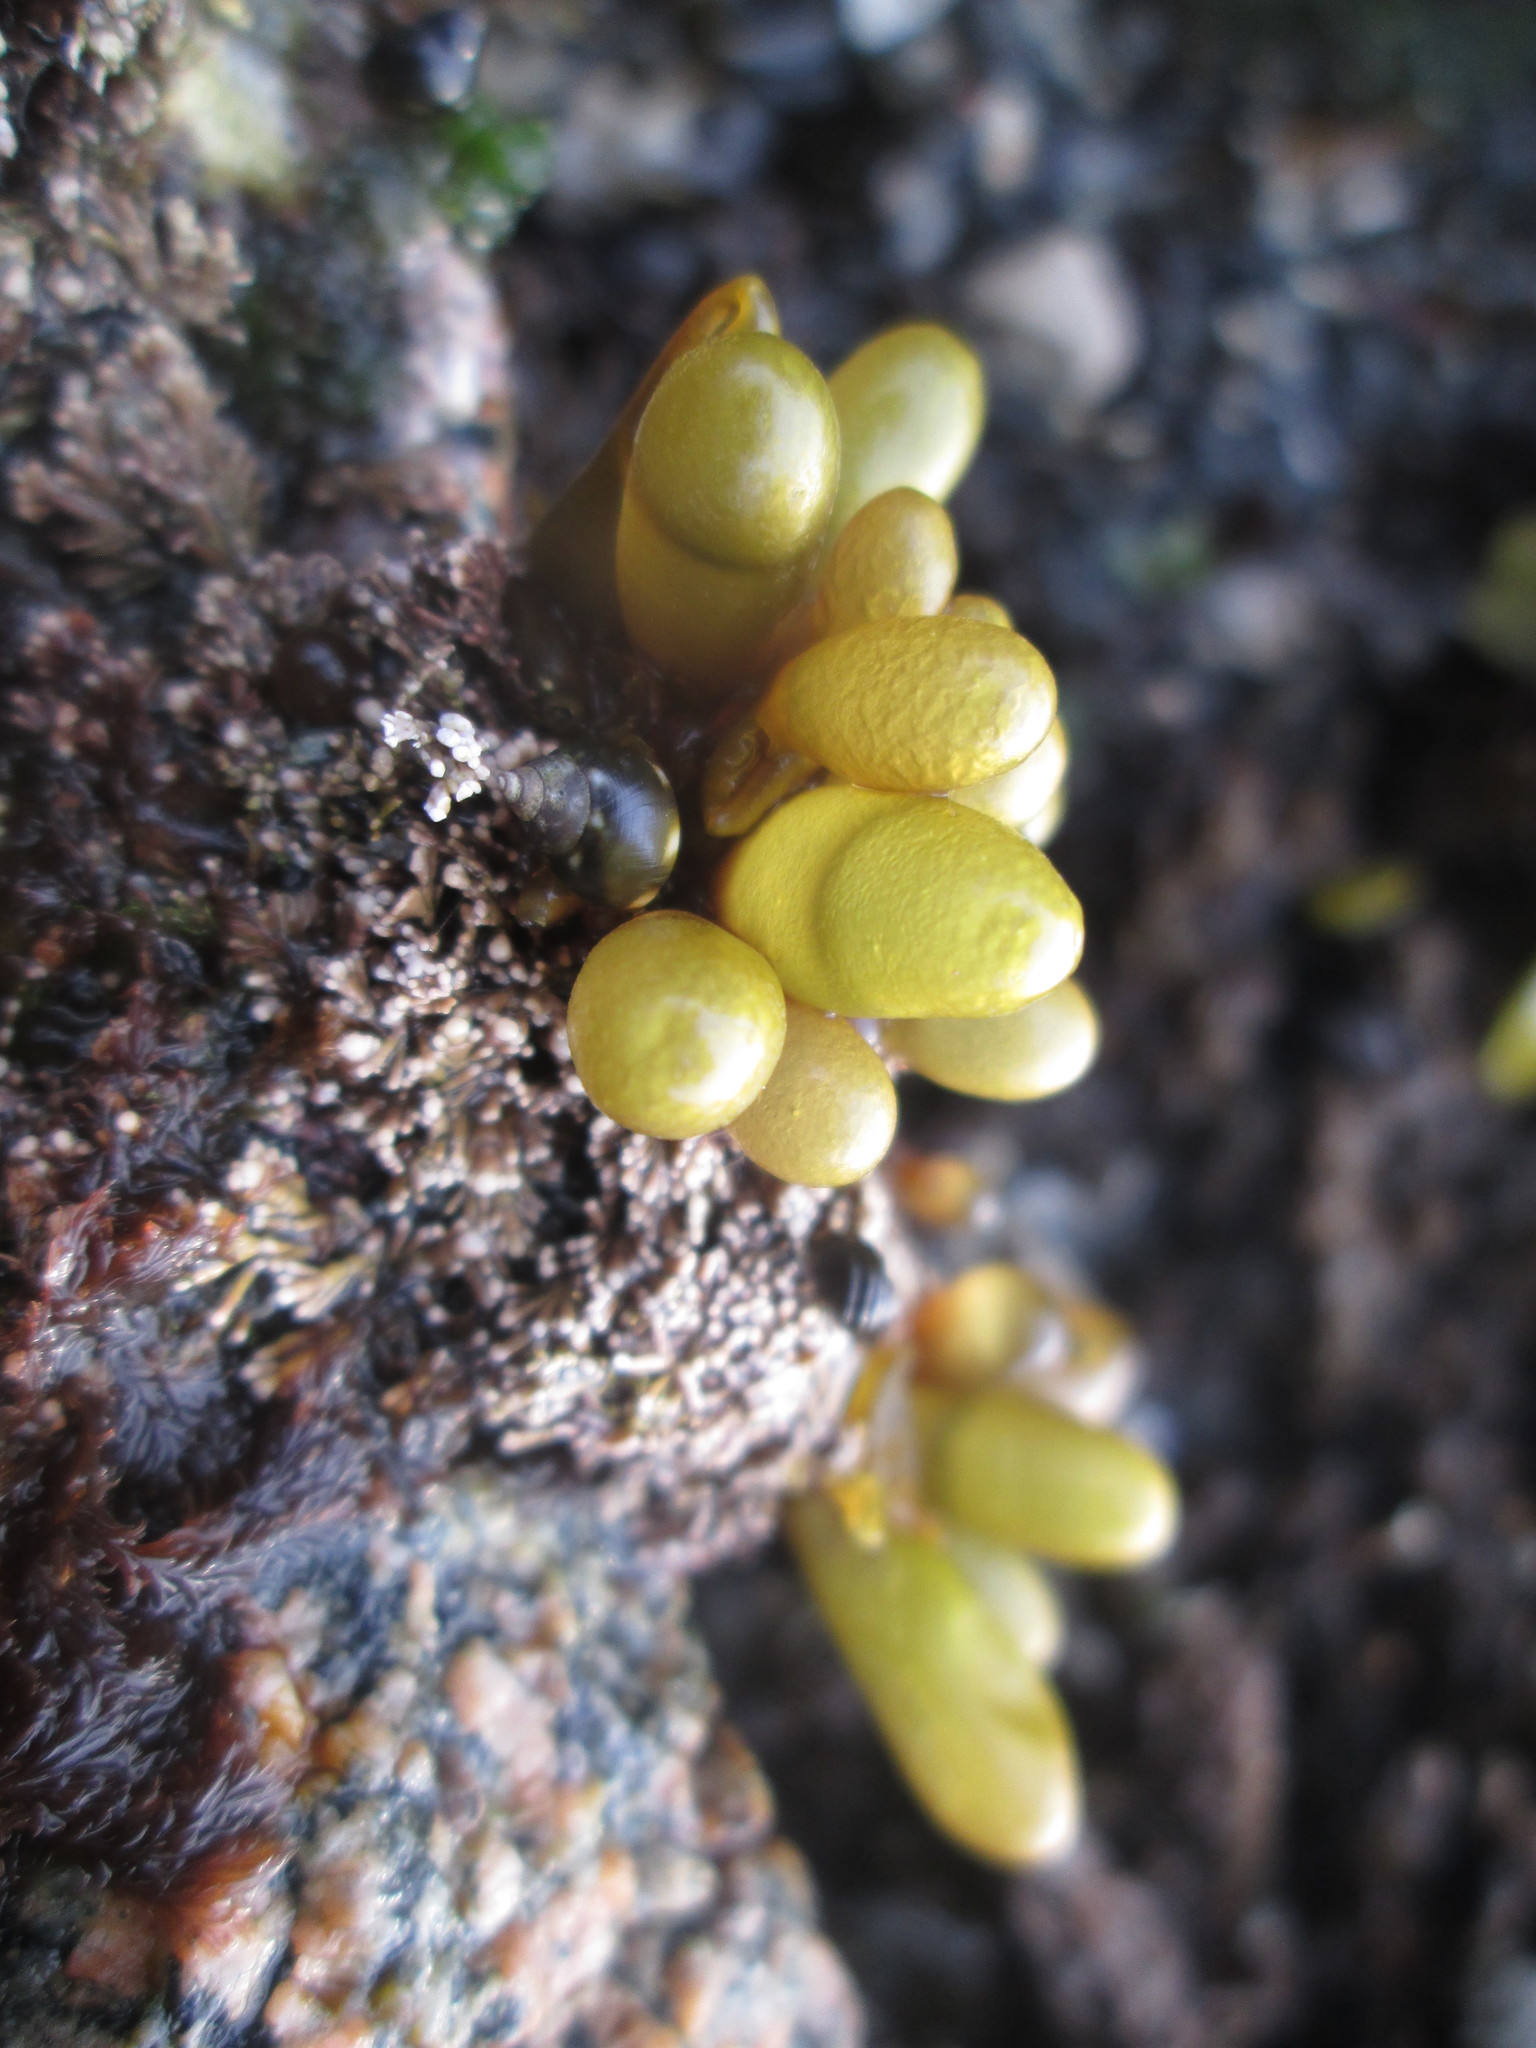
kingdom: Plantae
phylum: Rhodophyta
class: Florideophyceae
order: Palmariales
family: Palmariaceae
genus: Halosaccion
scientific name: Halosaccion glandiforme
